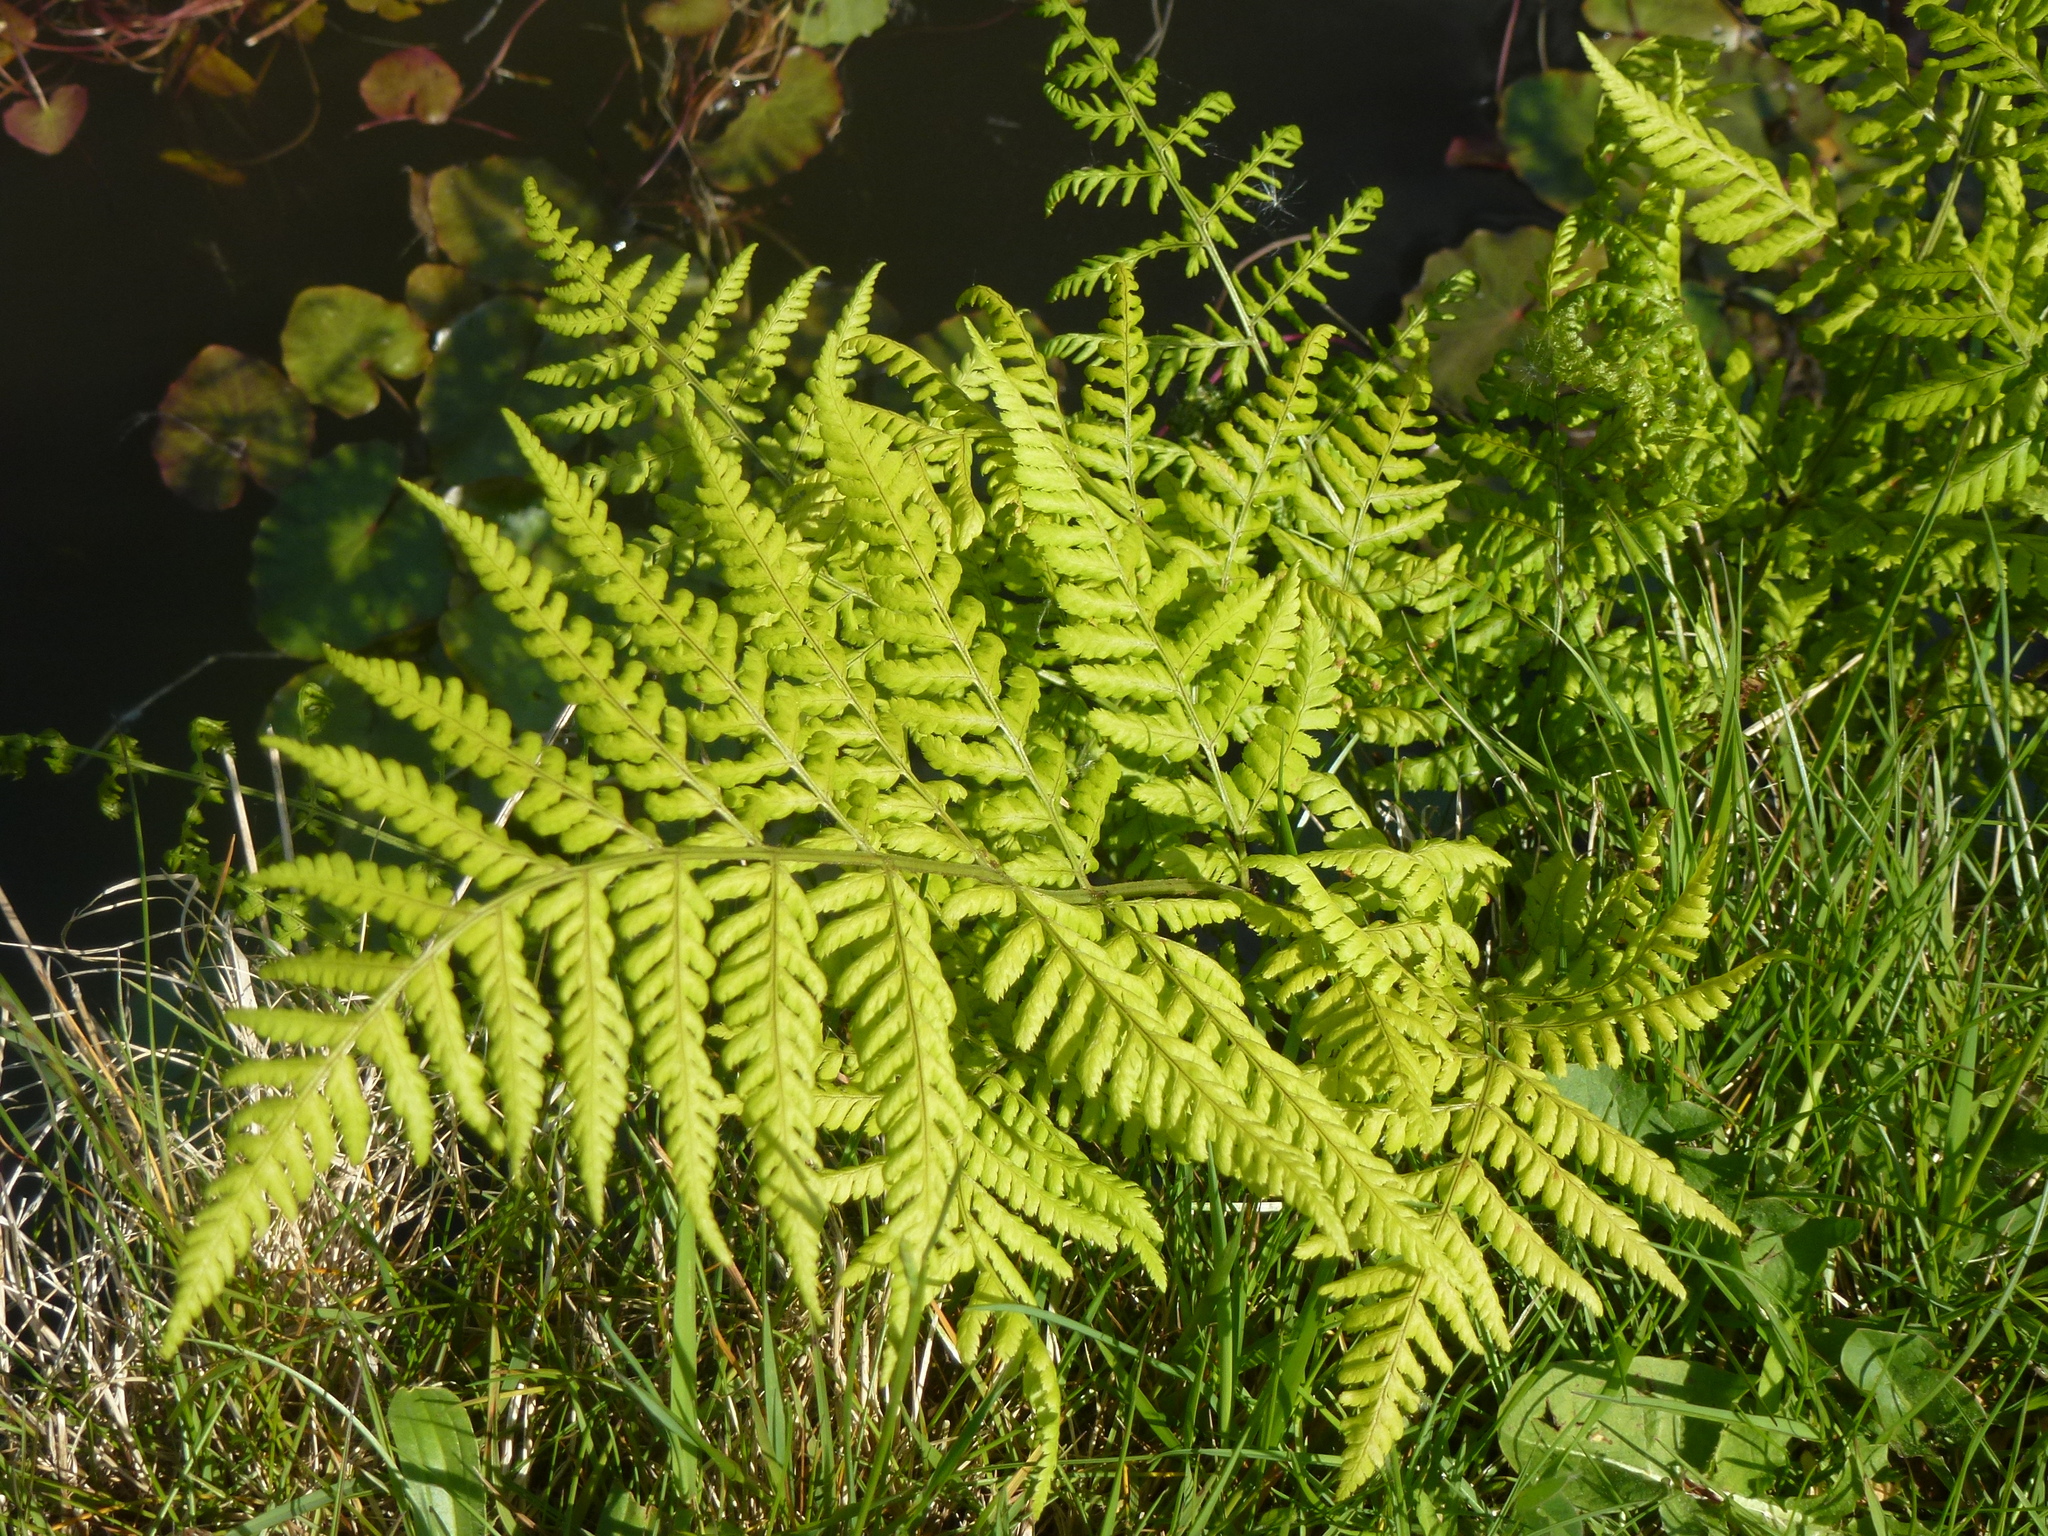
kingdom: Plantae
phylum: Tracheophyta
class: Polypodiopsida
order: Polypodiales
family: Dryopteridaceae
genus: Dryopteris
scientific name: Dryopteris dilatata
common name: Broad buckler-fern
